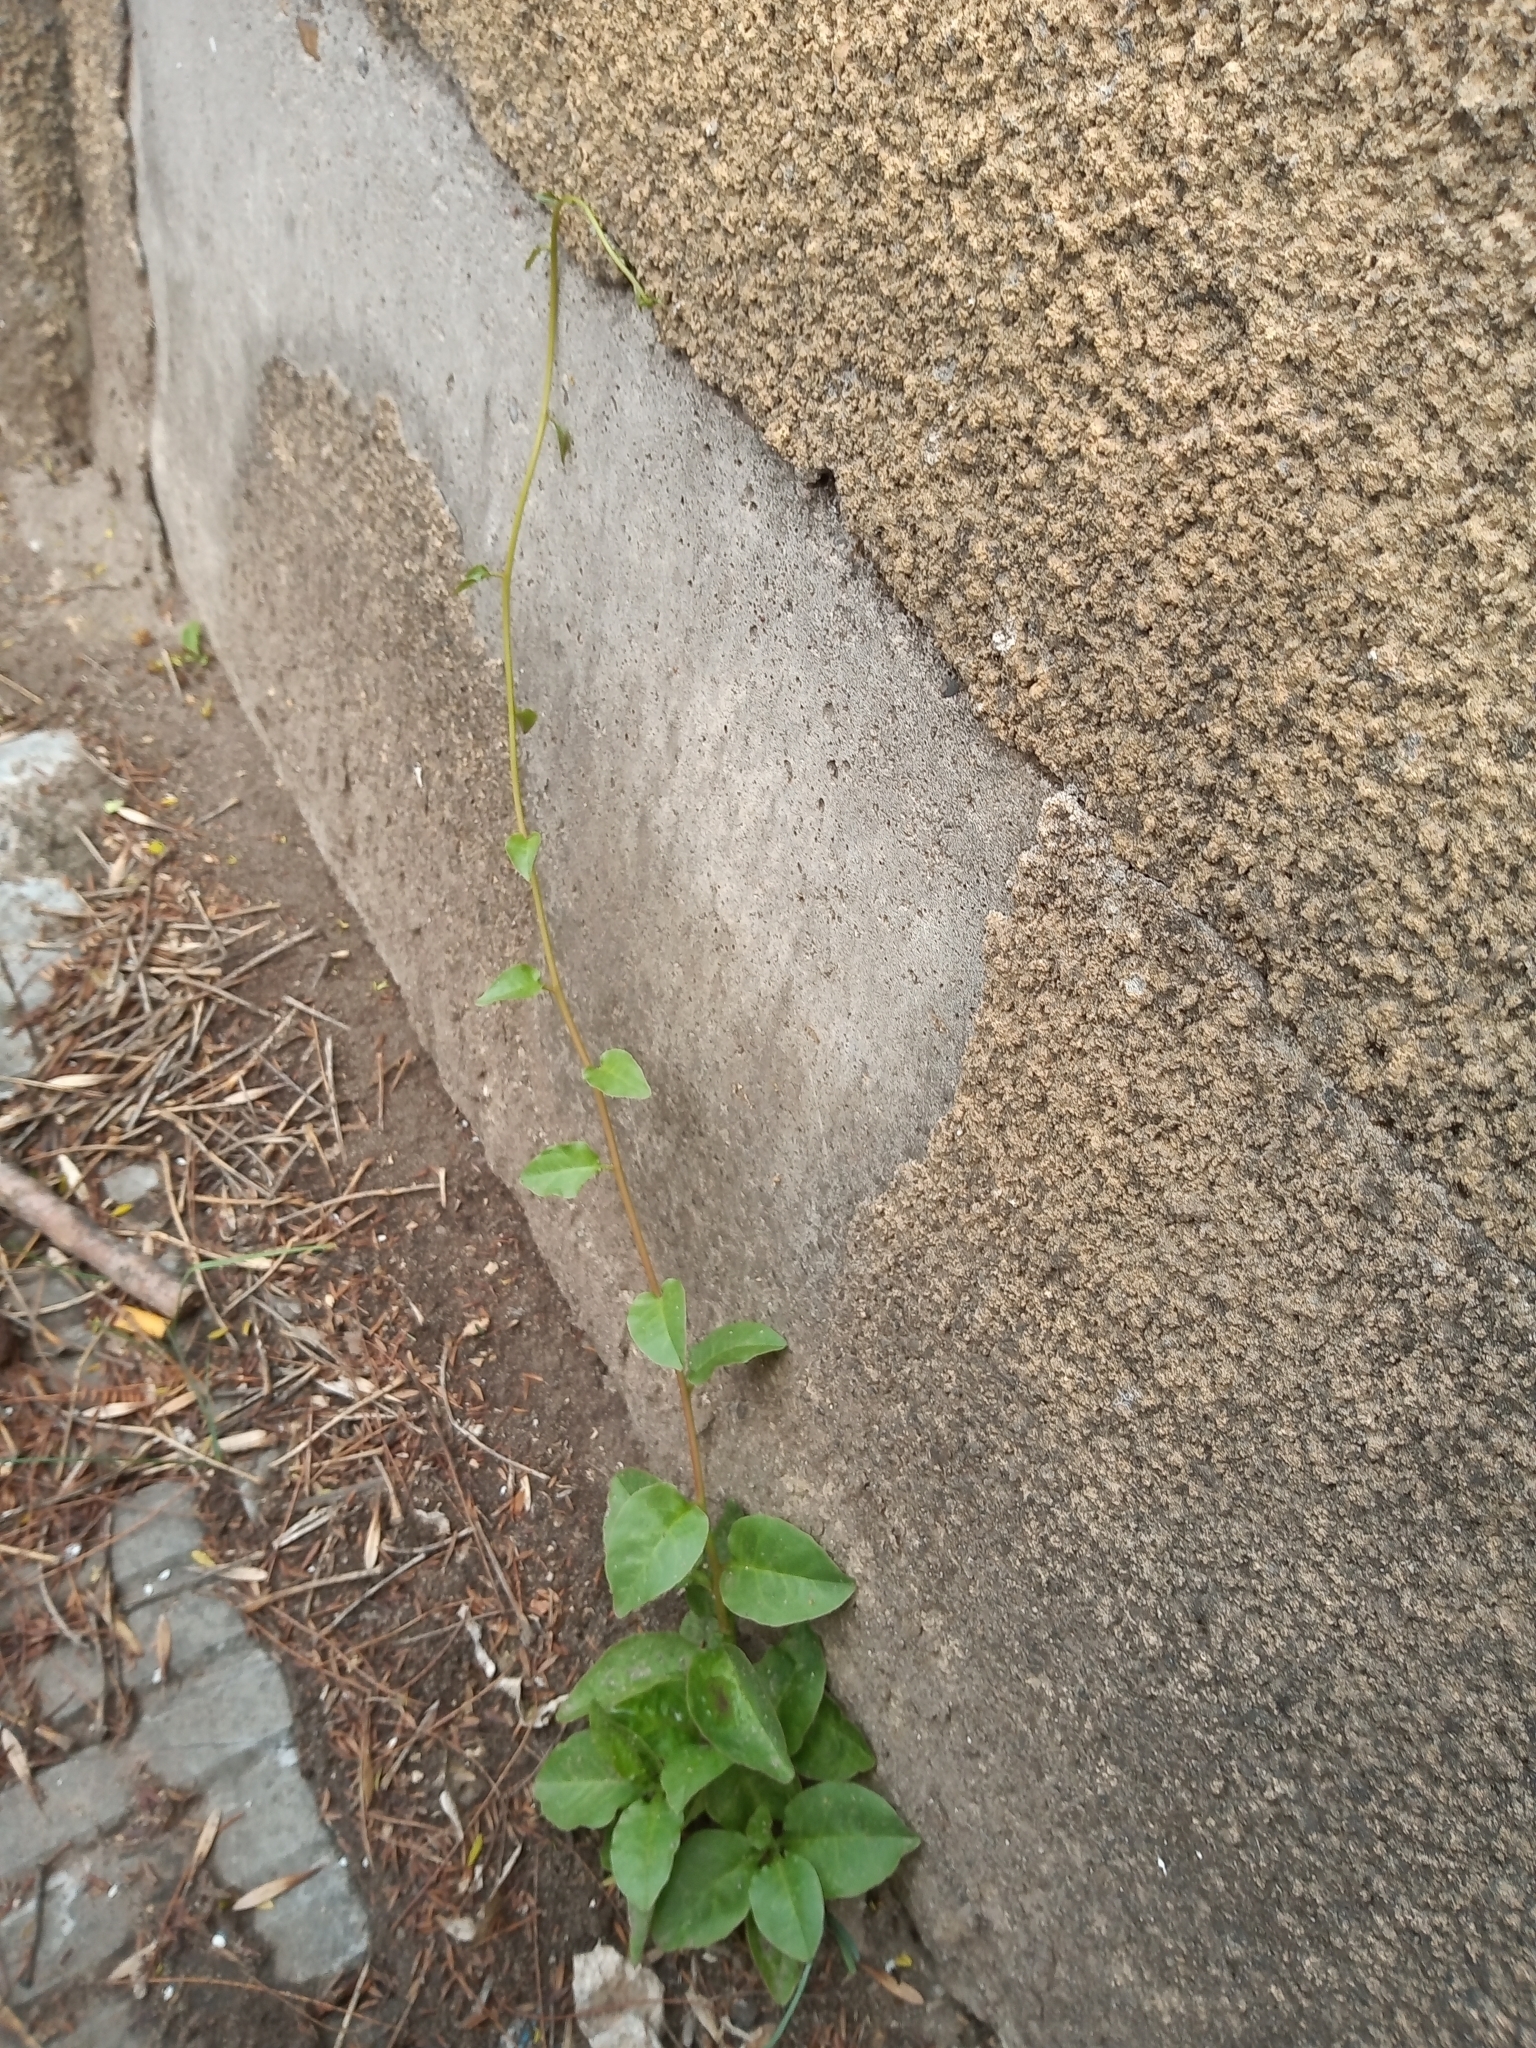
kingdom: Plantae
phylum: Tracheophyta
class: Magnoliopsida
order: Caryophyllales
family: Basellaceae
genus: Anredera
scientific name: Anredera cordifolia
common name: Heartleaf madeiravine
